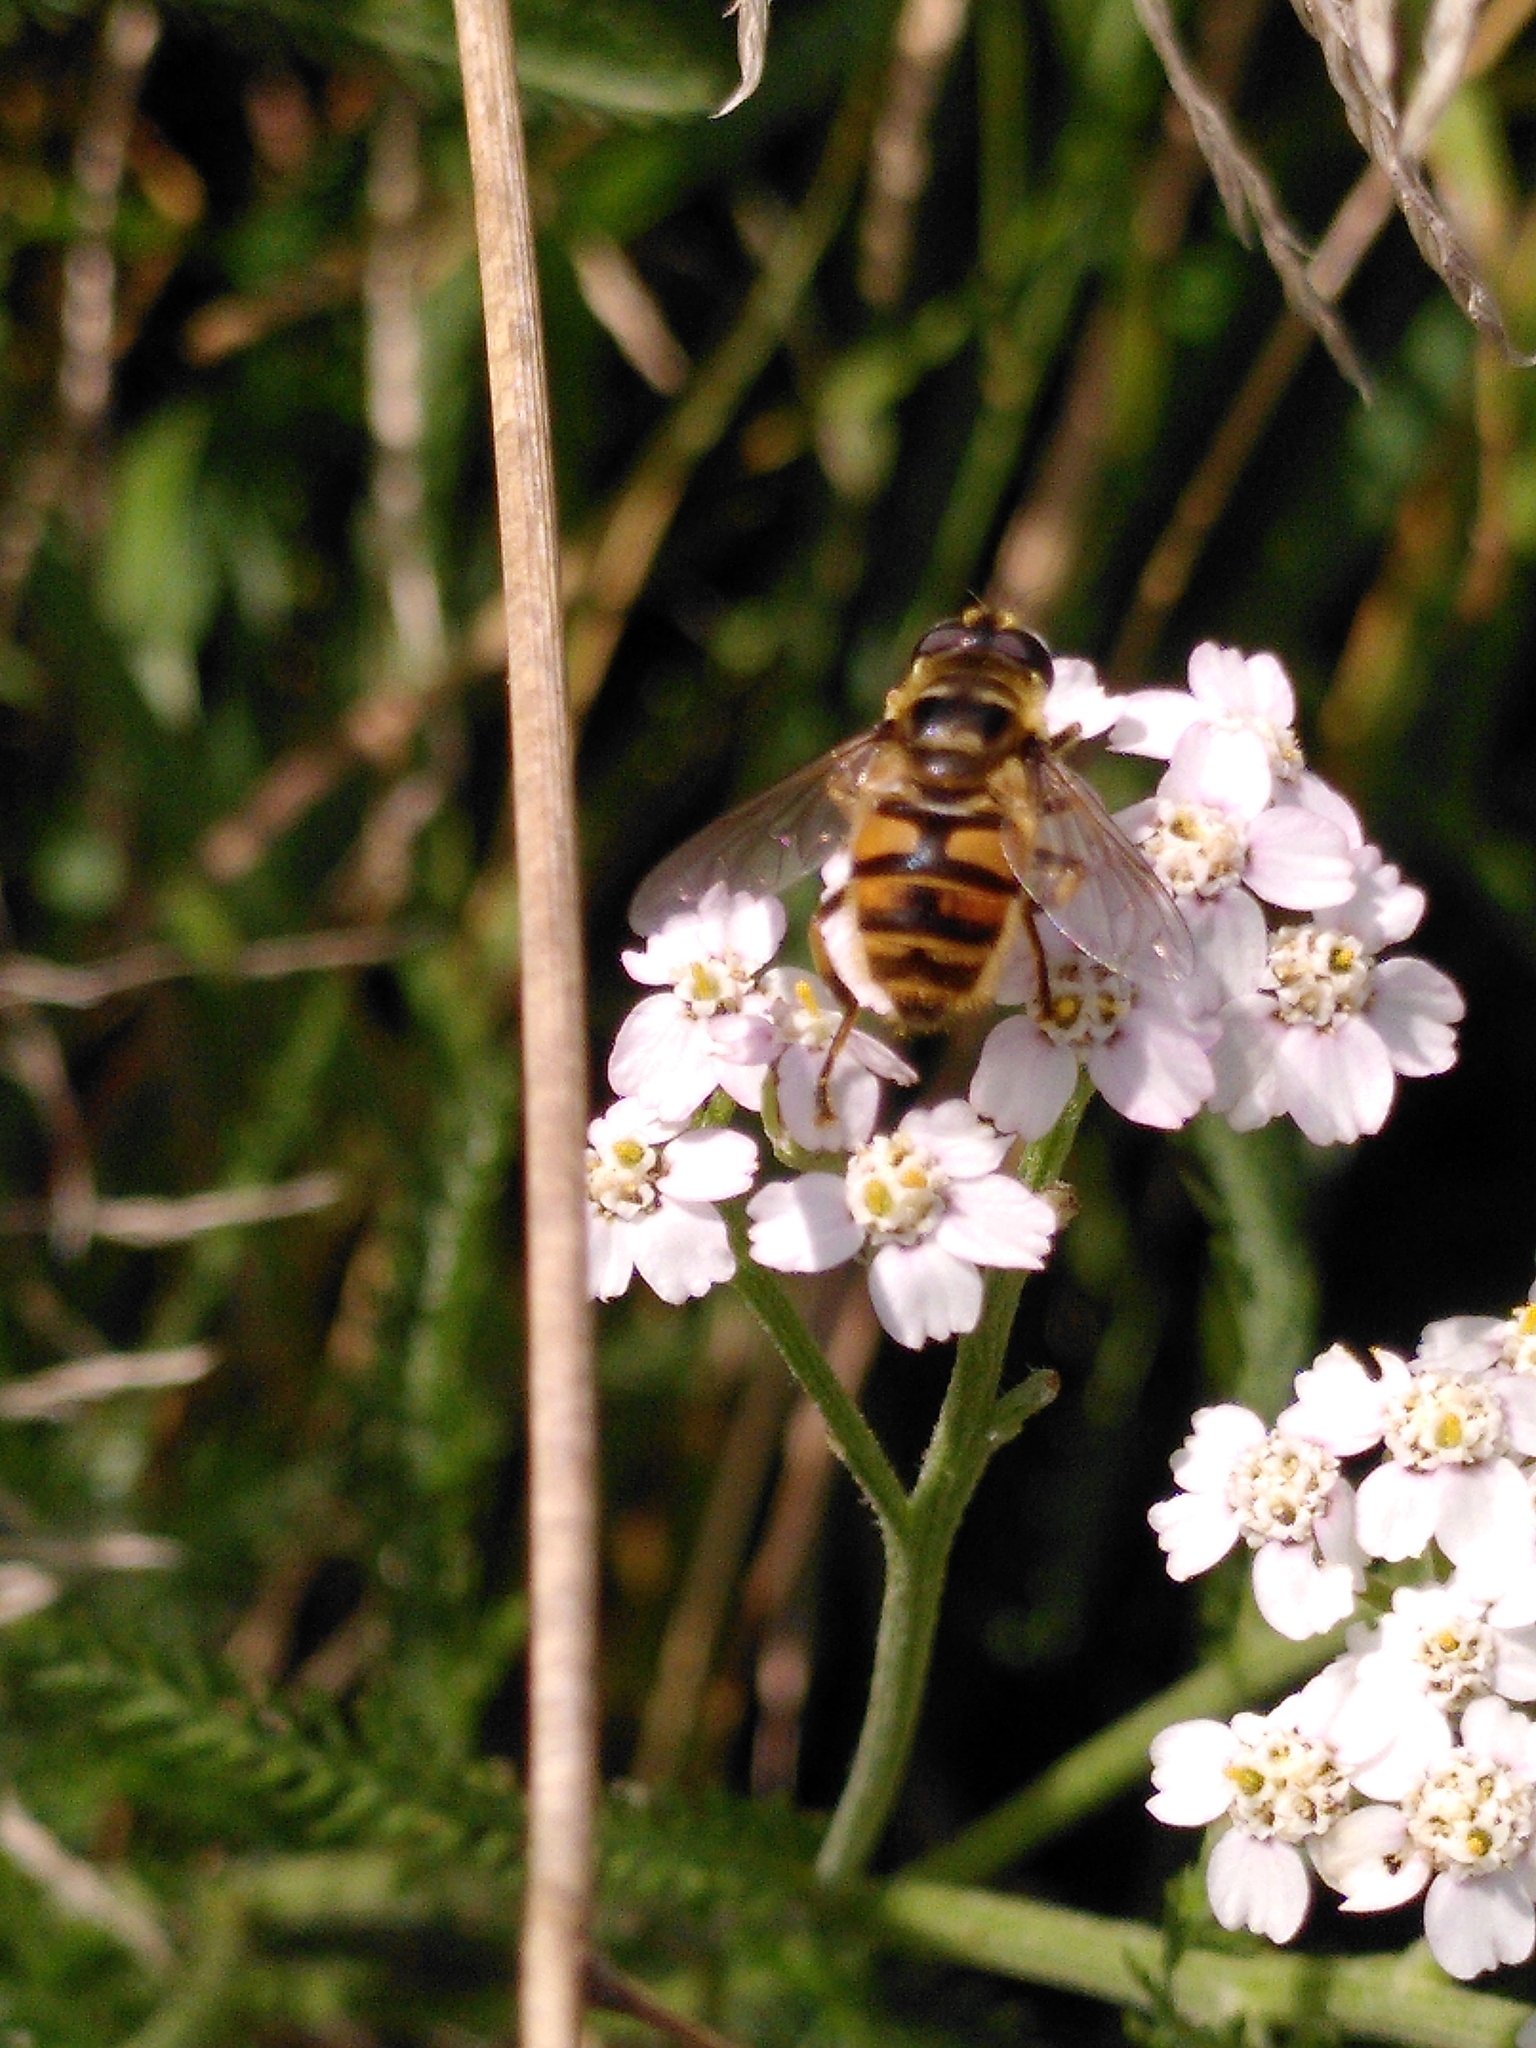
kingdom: Animalia
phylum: Arthropoda
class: Insecta
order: Diptera
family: Syrphidae
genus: Myathropa
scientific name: Myathropa florea
